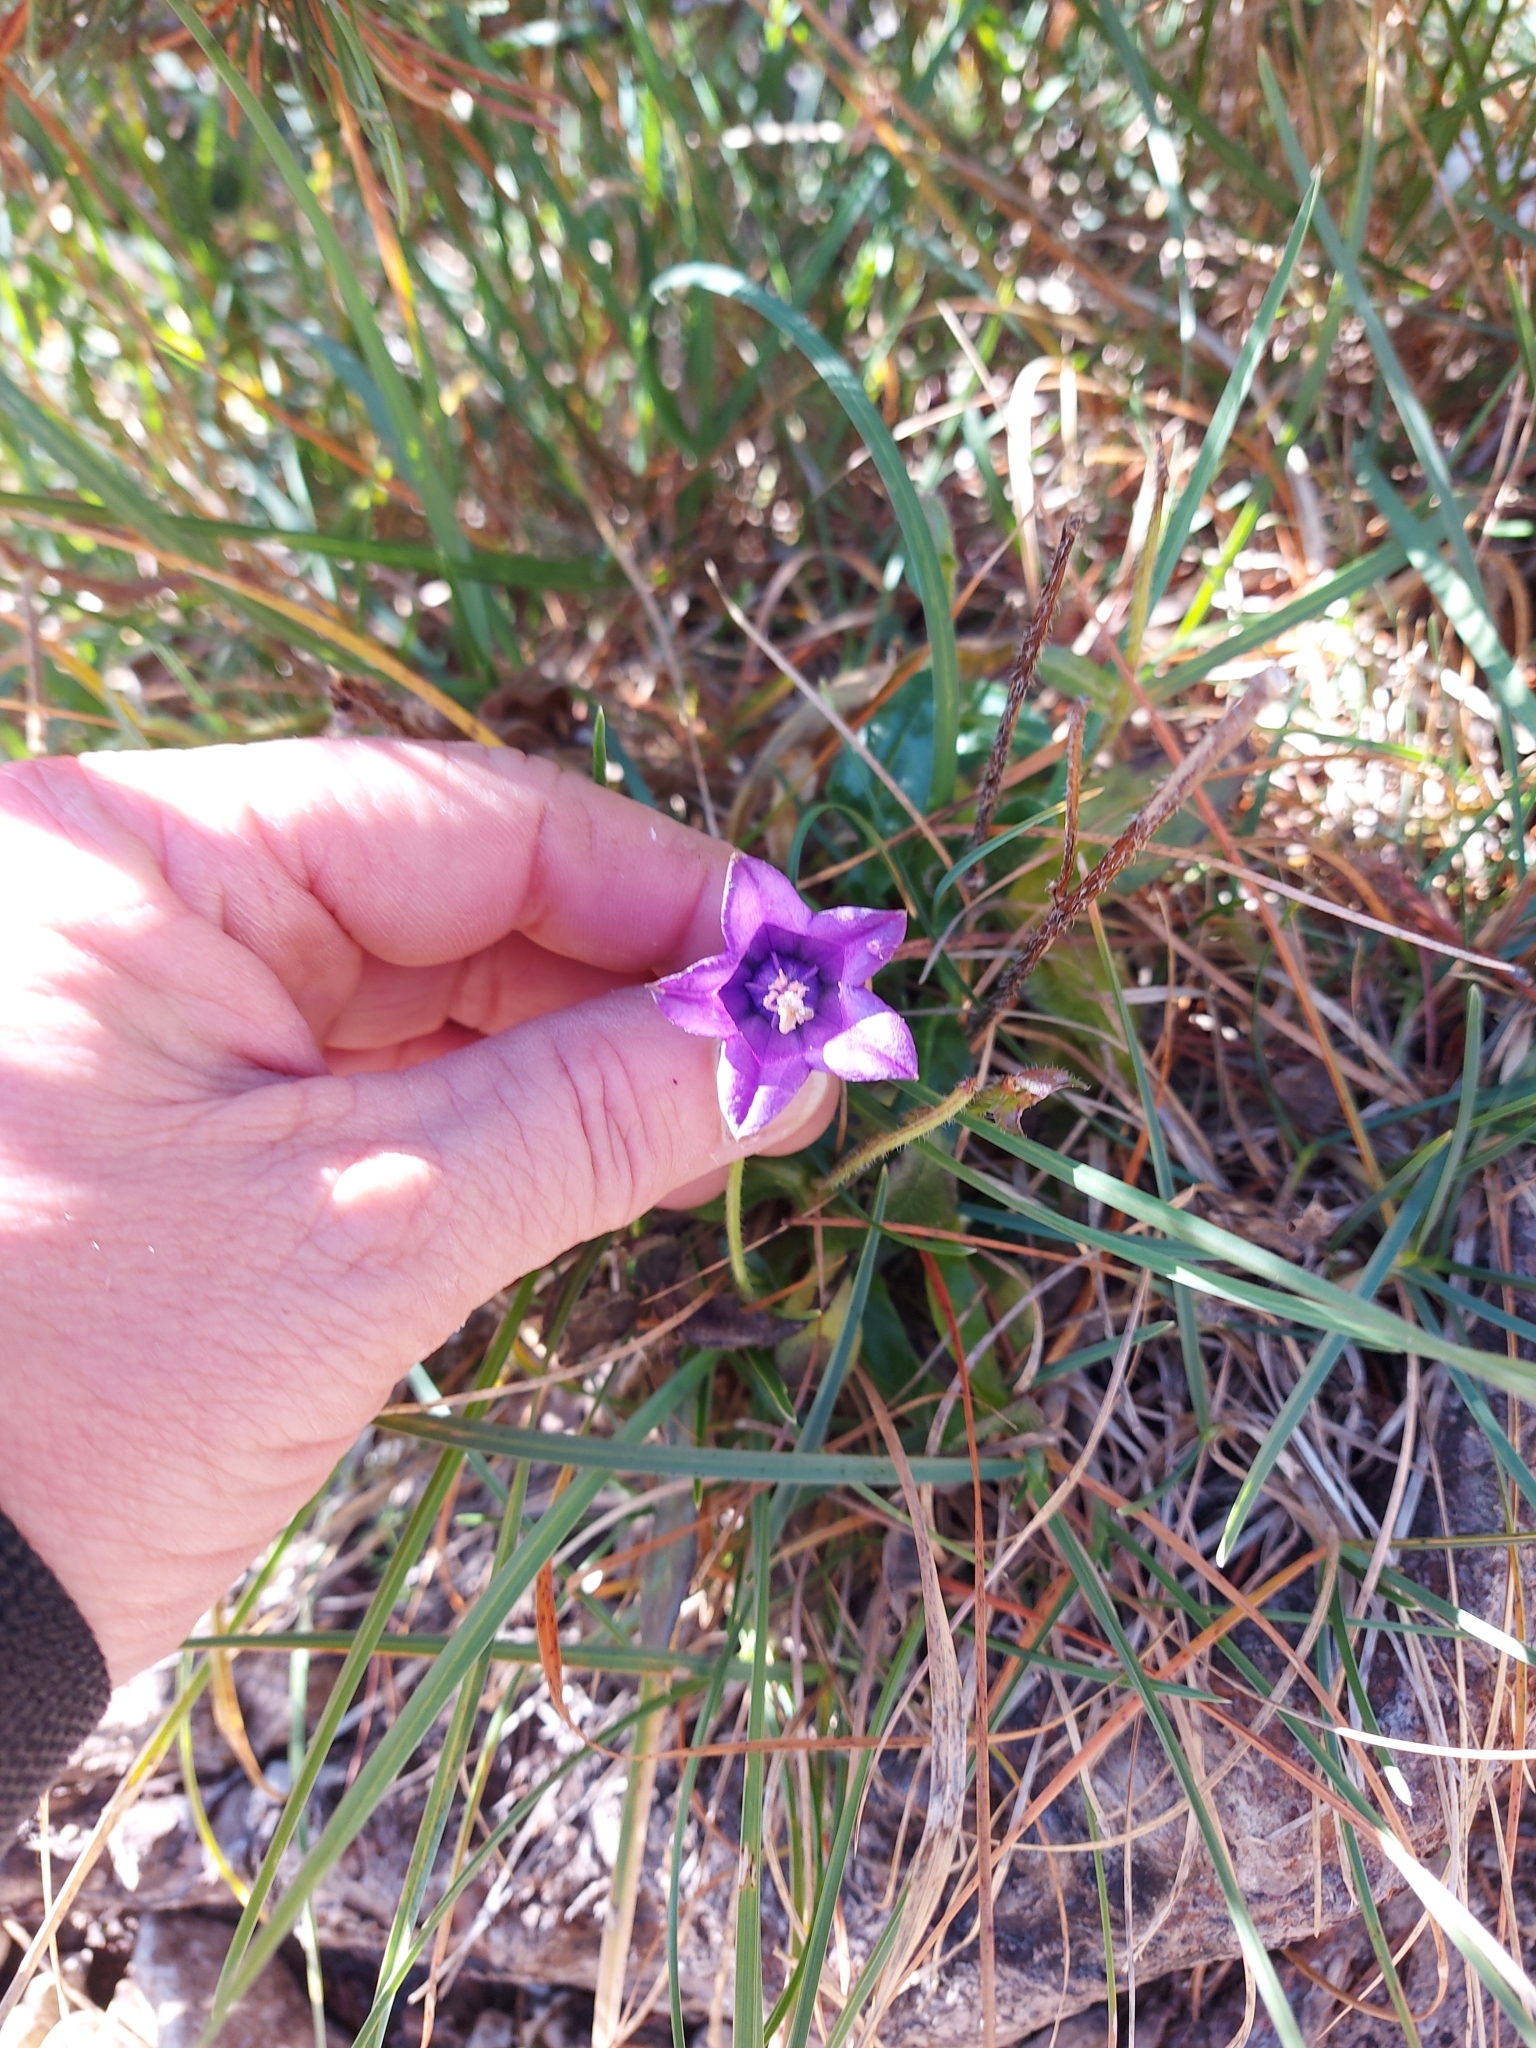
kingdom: Plantae
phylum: Tracheophyta
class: Magnoliopsida
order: Asterales
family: Campanulaceae
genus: Campanula
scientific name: Campanula barbata
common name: Bearded bellflower
